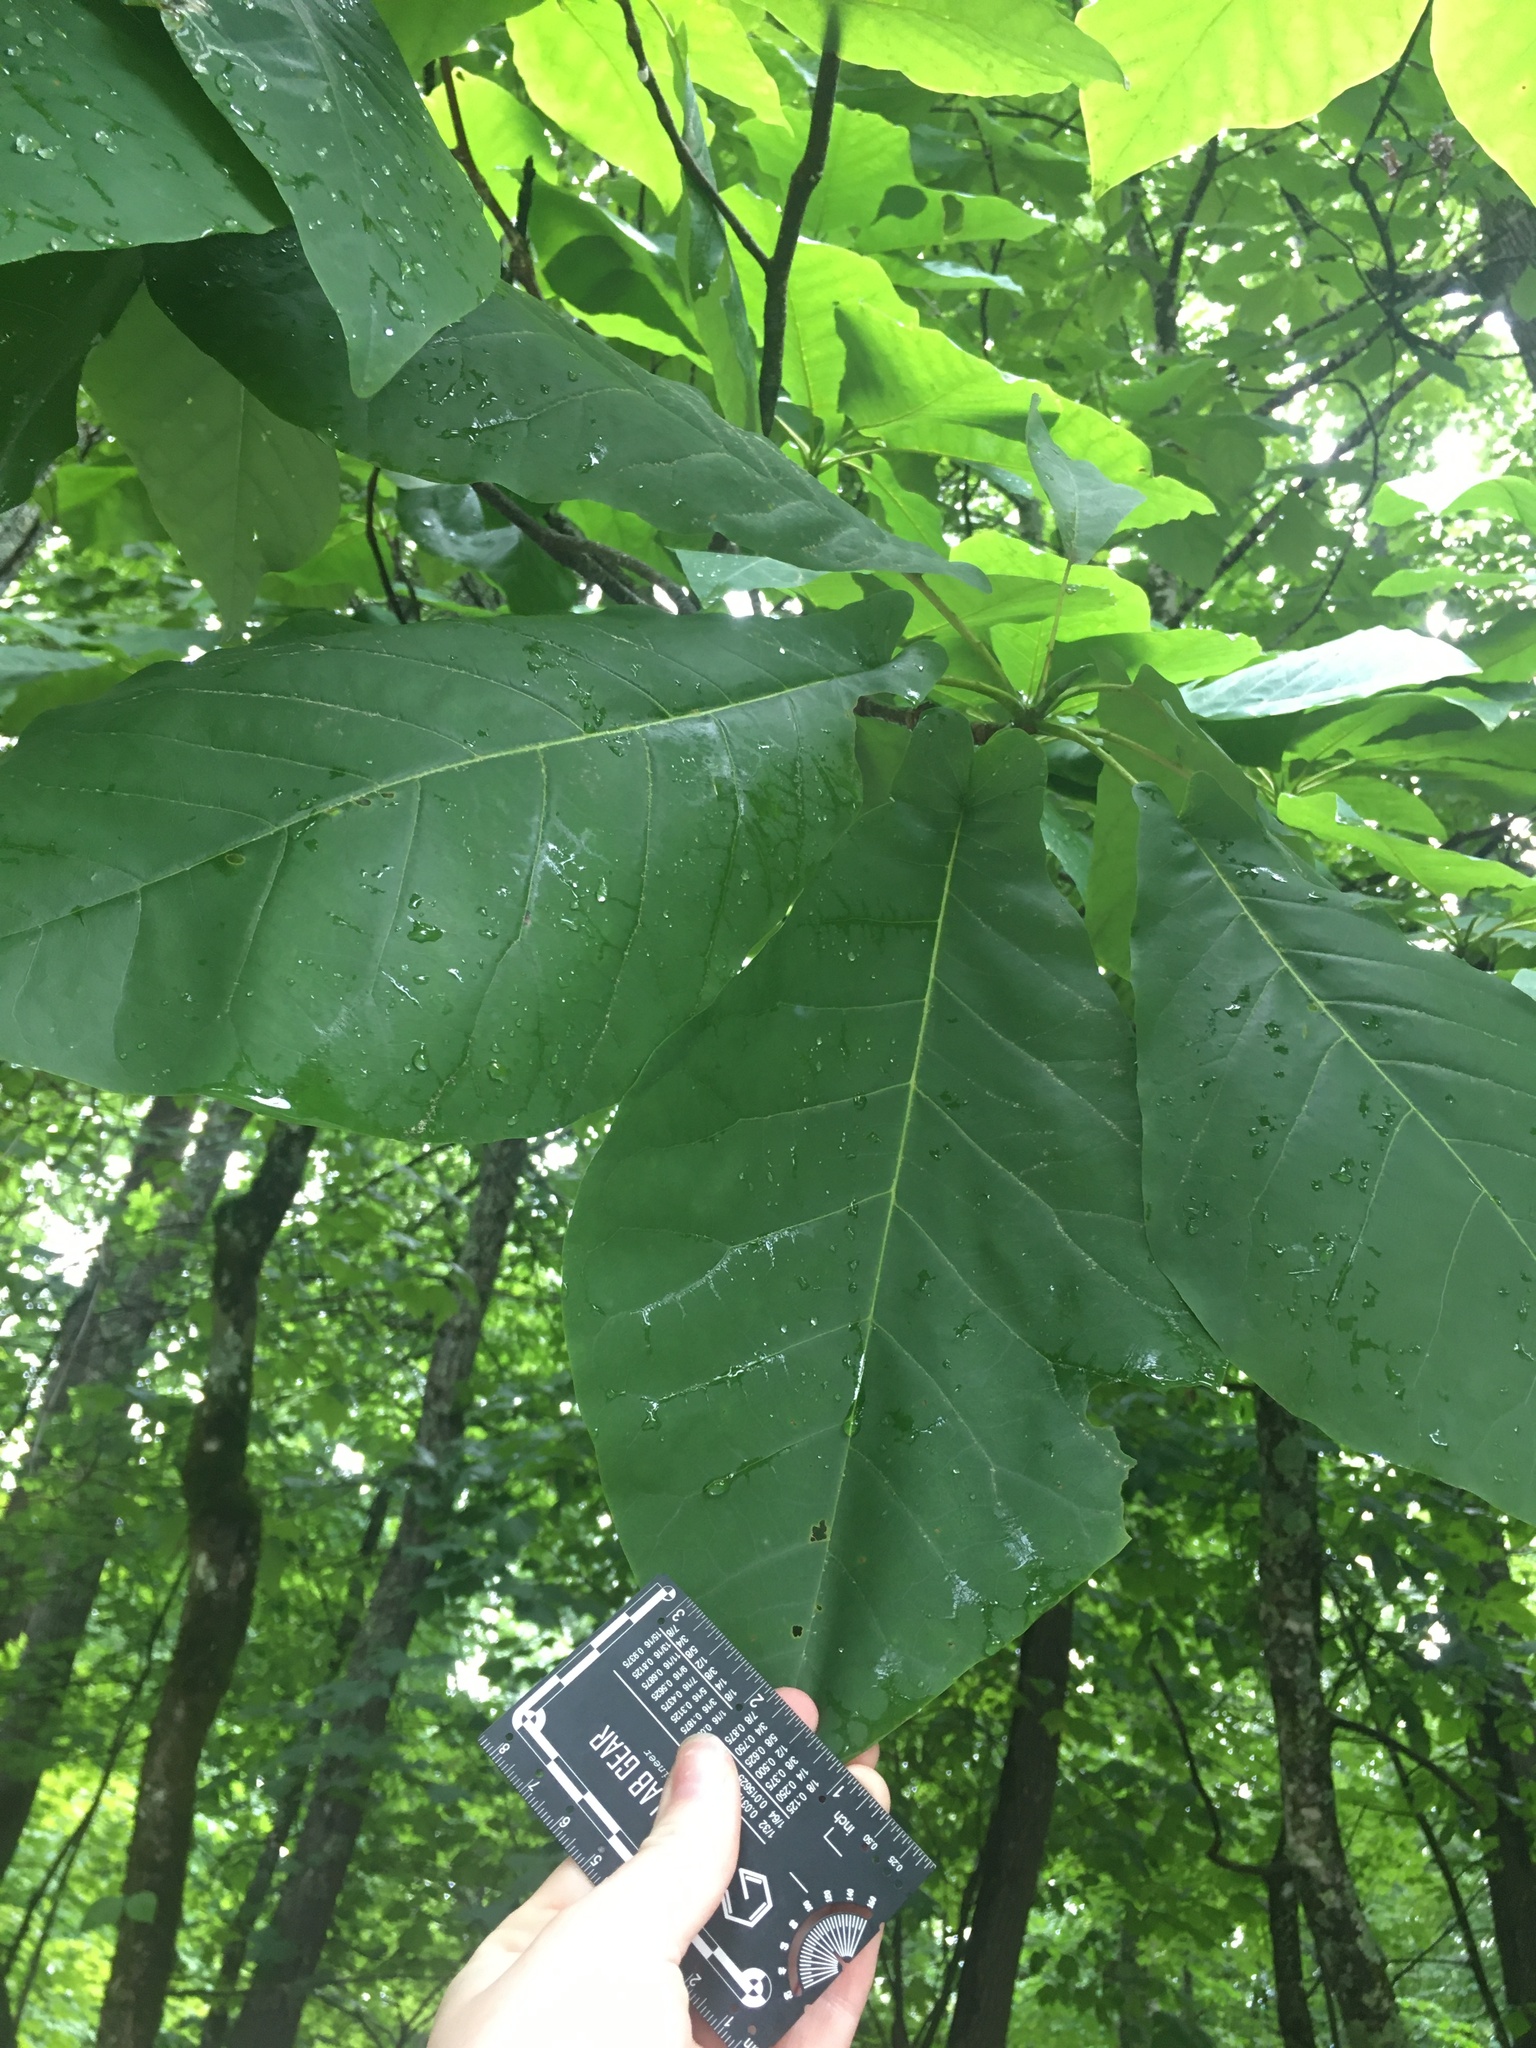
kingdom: Plantae
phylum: Tracheophyta
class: Magnoliopsida
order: Magnoliales
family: Magnoliaceae
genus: Magnolia
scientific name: Magnolia fraseri
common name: Fraser's magnolia
